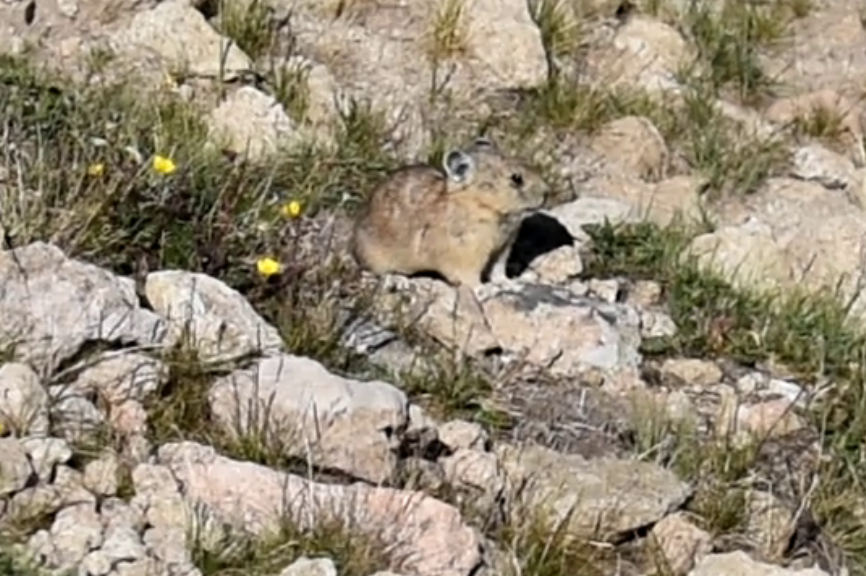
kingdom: Animalia
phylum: Chordata
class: Mammalia
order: Lagomorpha
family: Ochotonidae
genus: Ochotona
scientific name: Ochotona princeps
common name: American pika
